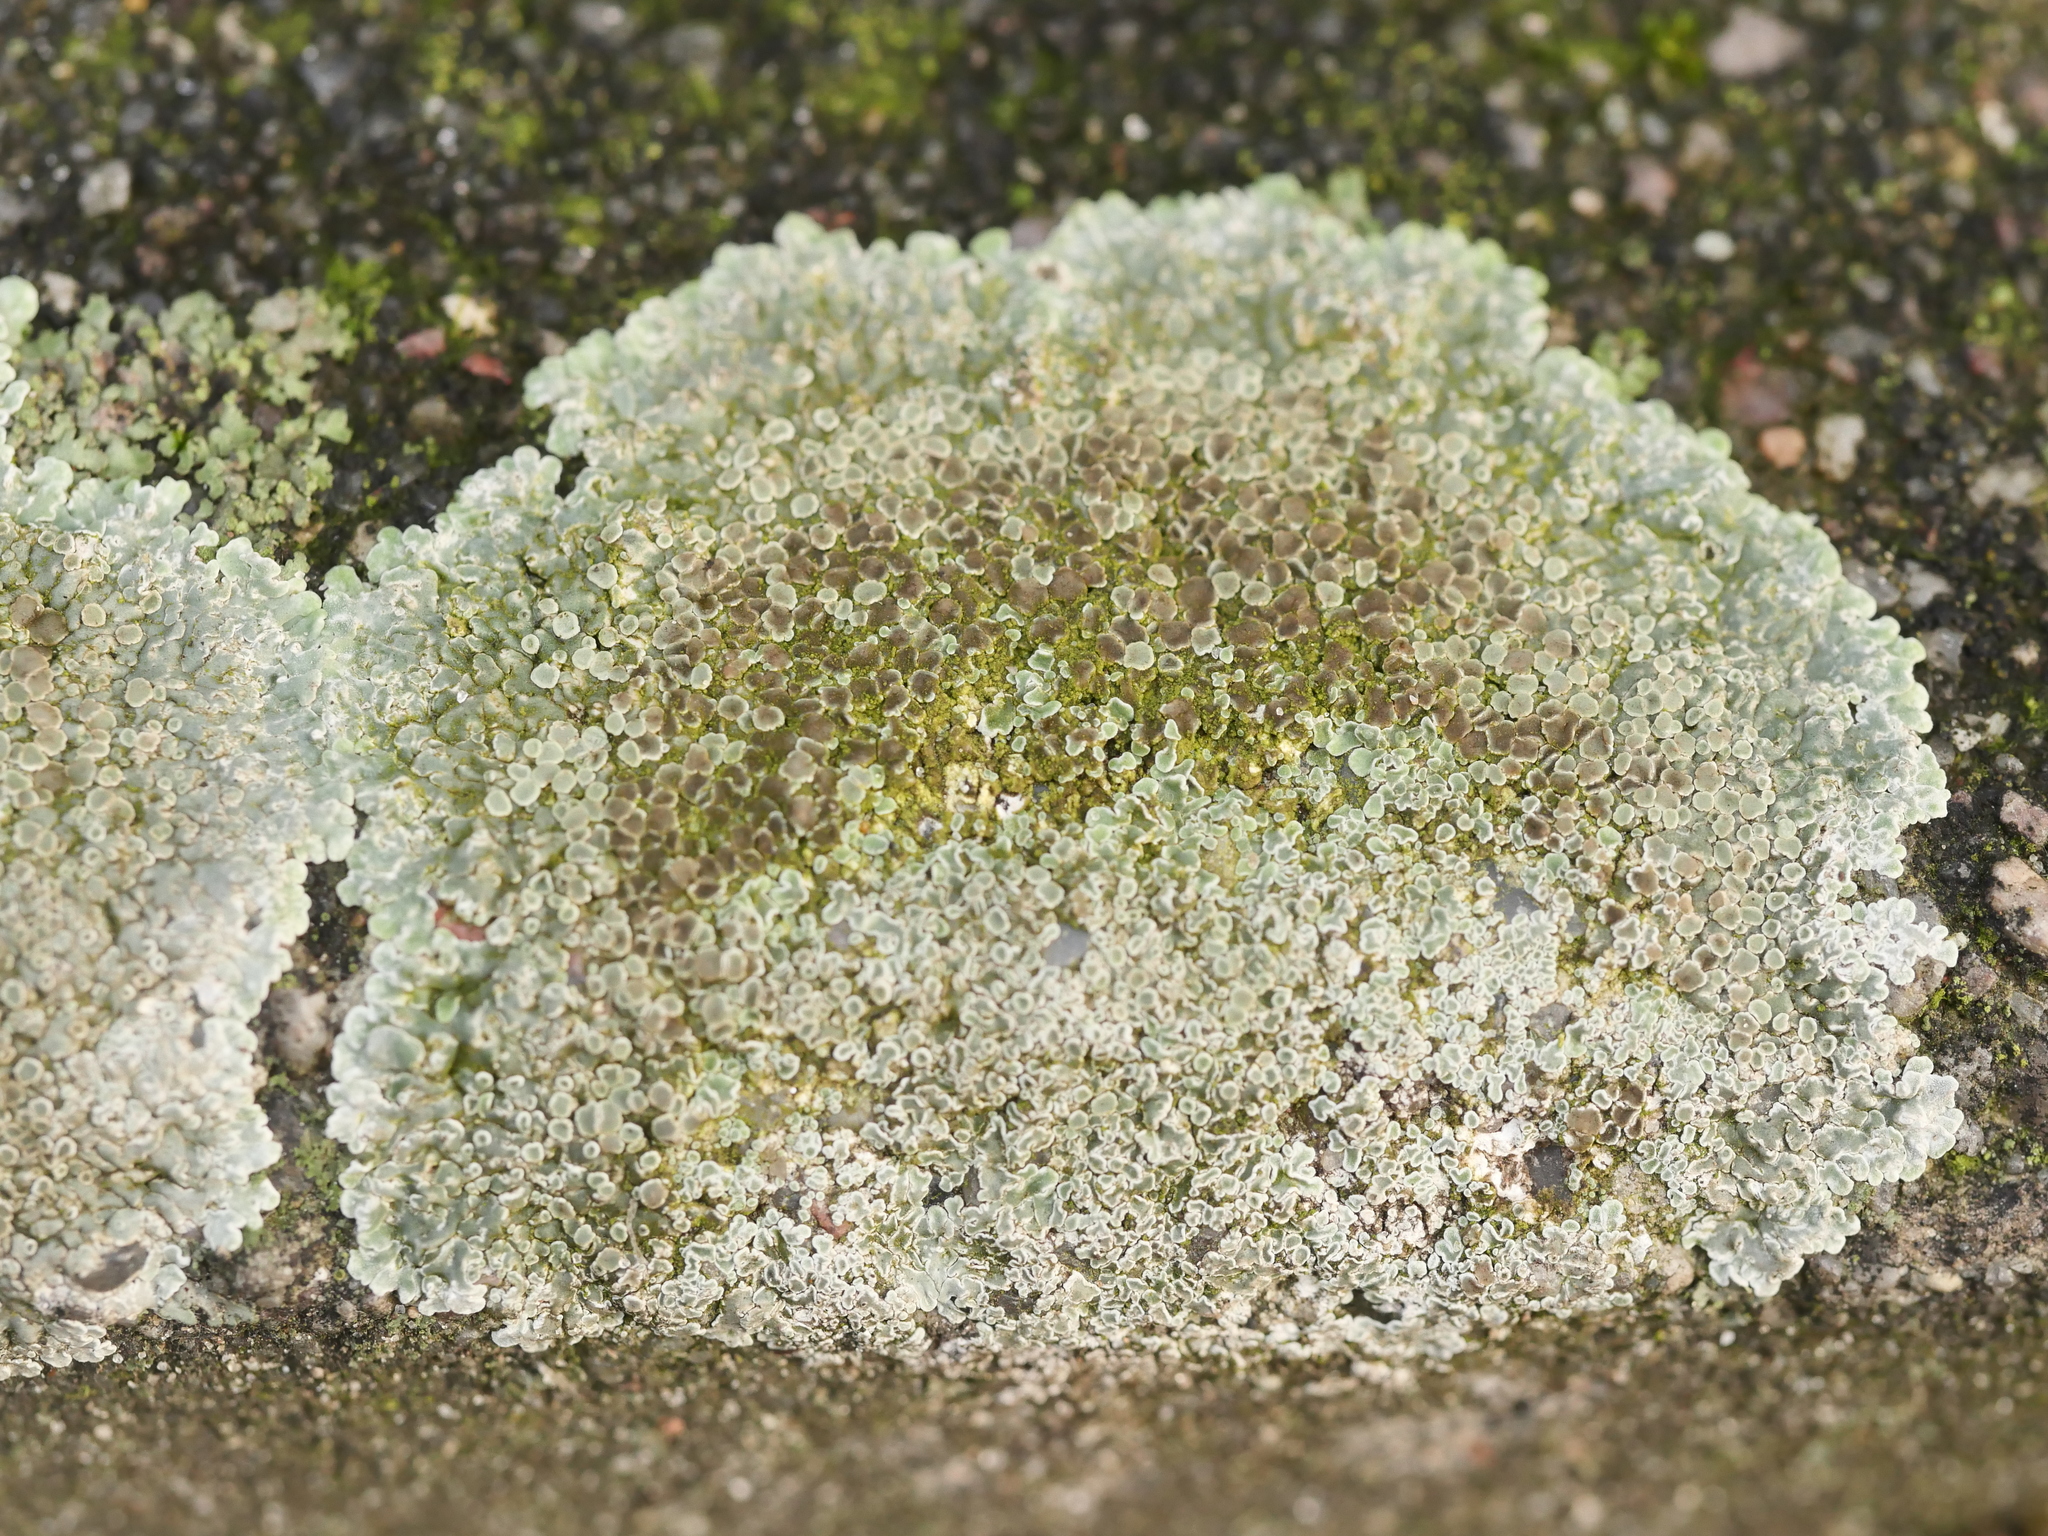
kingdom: Fungi
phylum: Ascomycota
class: Lecanoromycetes
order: Lecanorales
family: Lecanoraceae
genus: Protoparmeliopsis
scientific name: Protoparmeliopsis muralis
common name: Stonewall rim lichen
